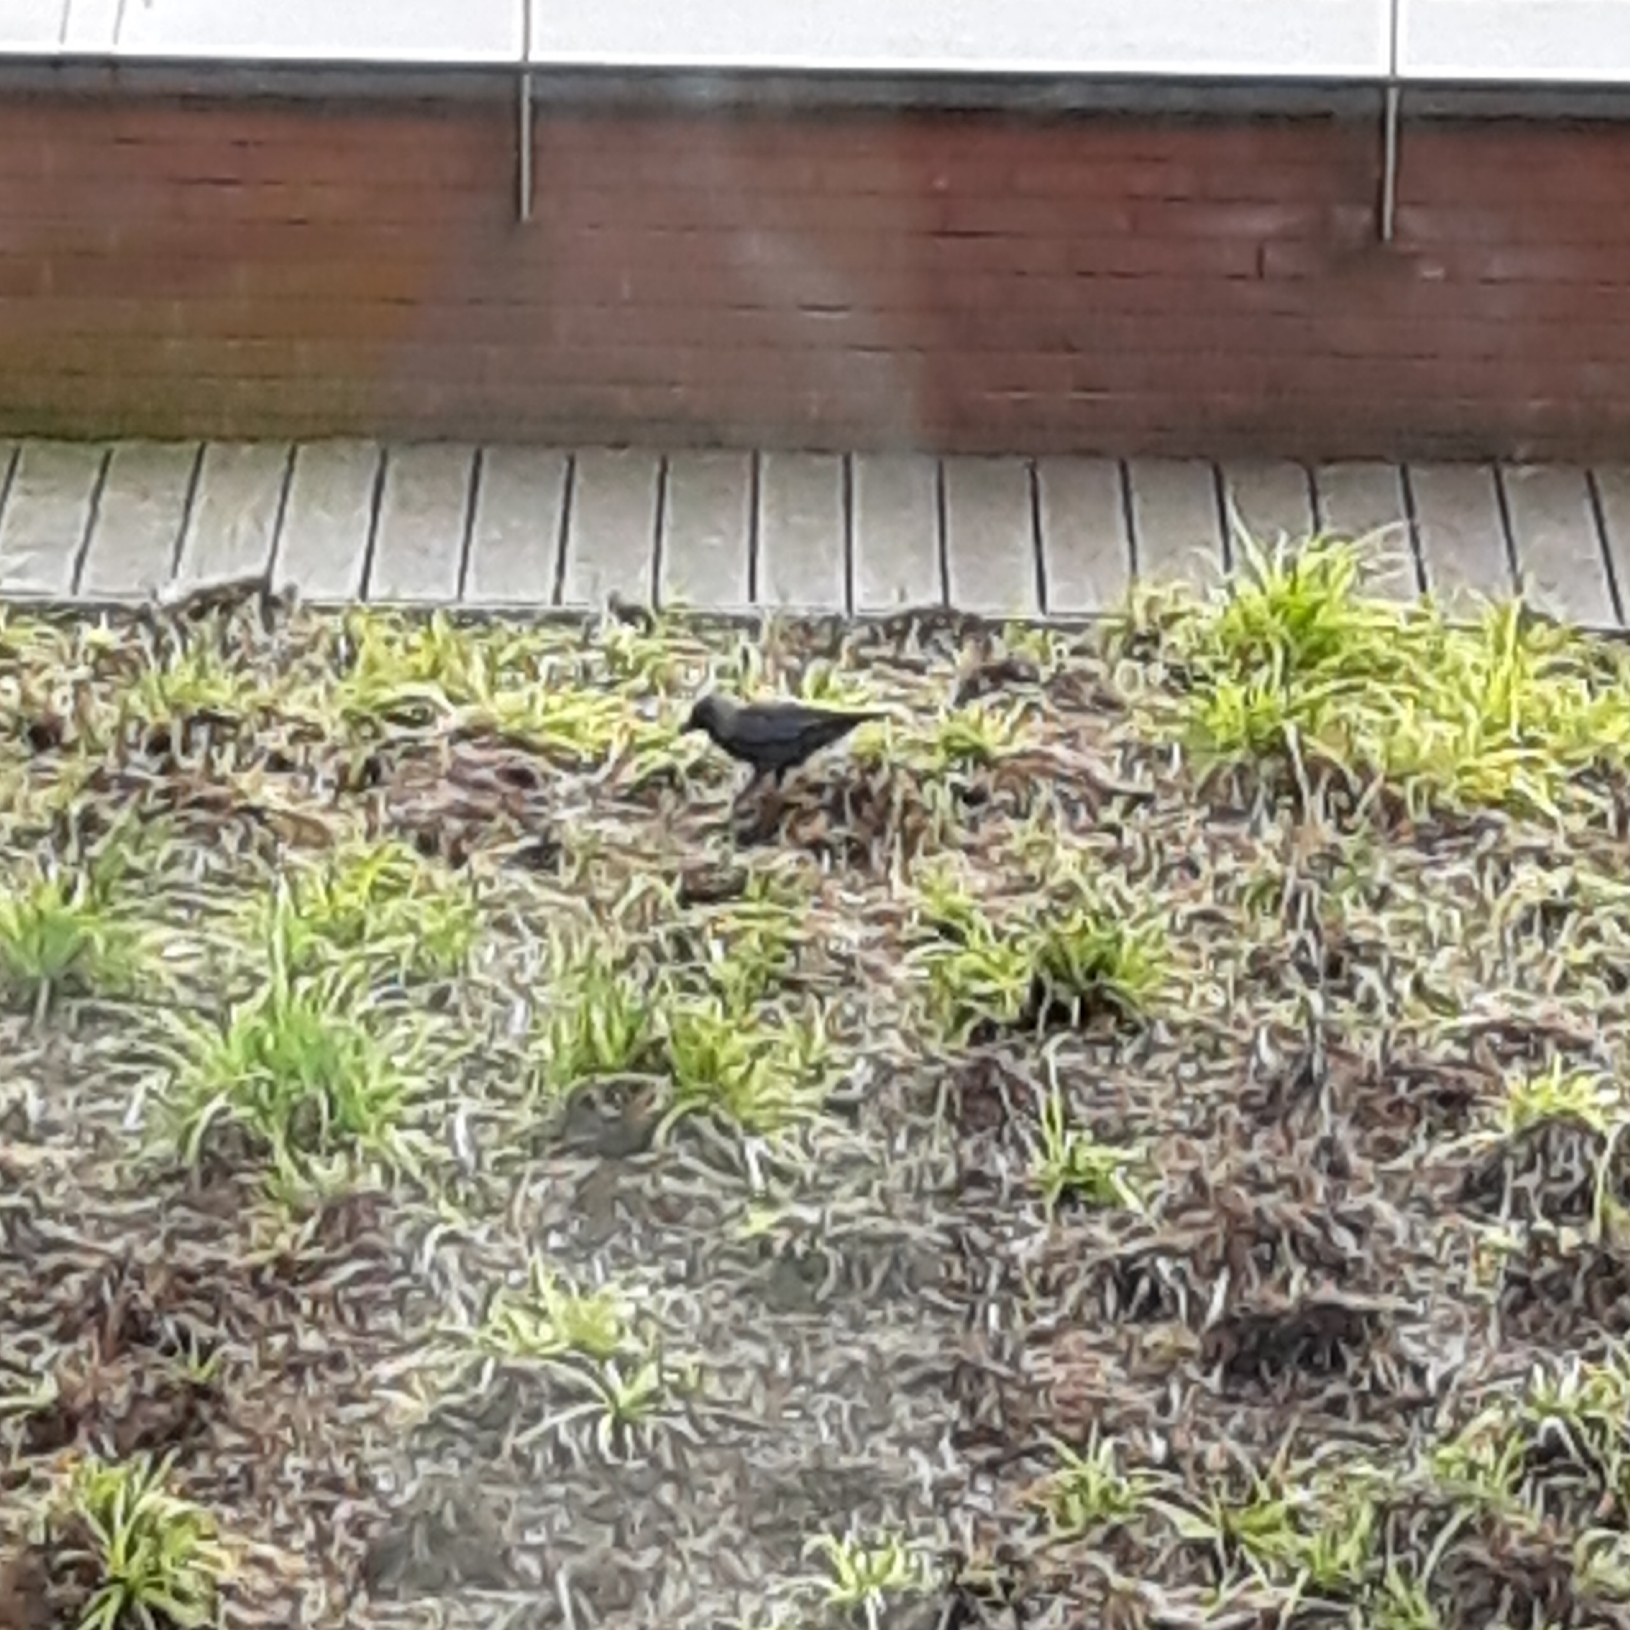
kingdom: Animalia
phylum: Chordata
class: Aves
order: Passeriformes
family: Corvidae
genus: Coloeus
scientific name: Coloeus monedula
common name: Western jackdaw
